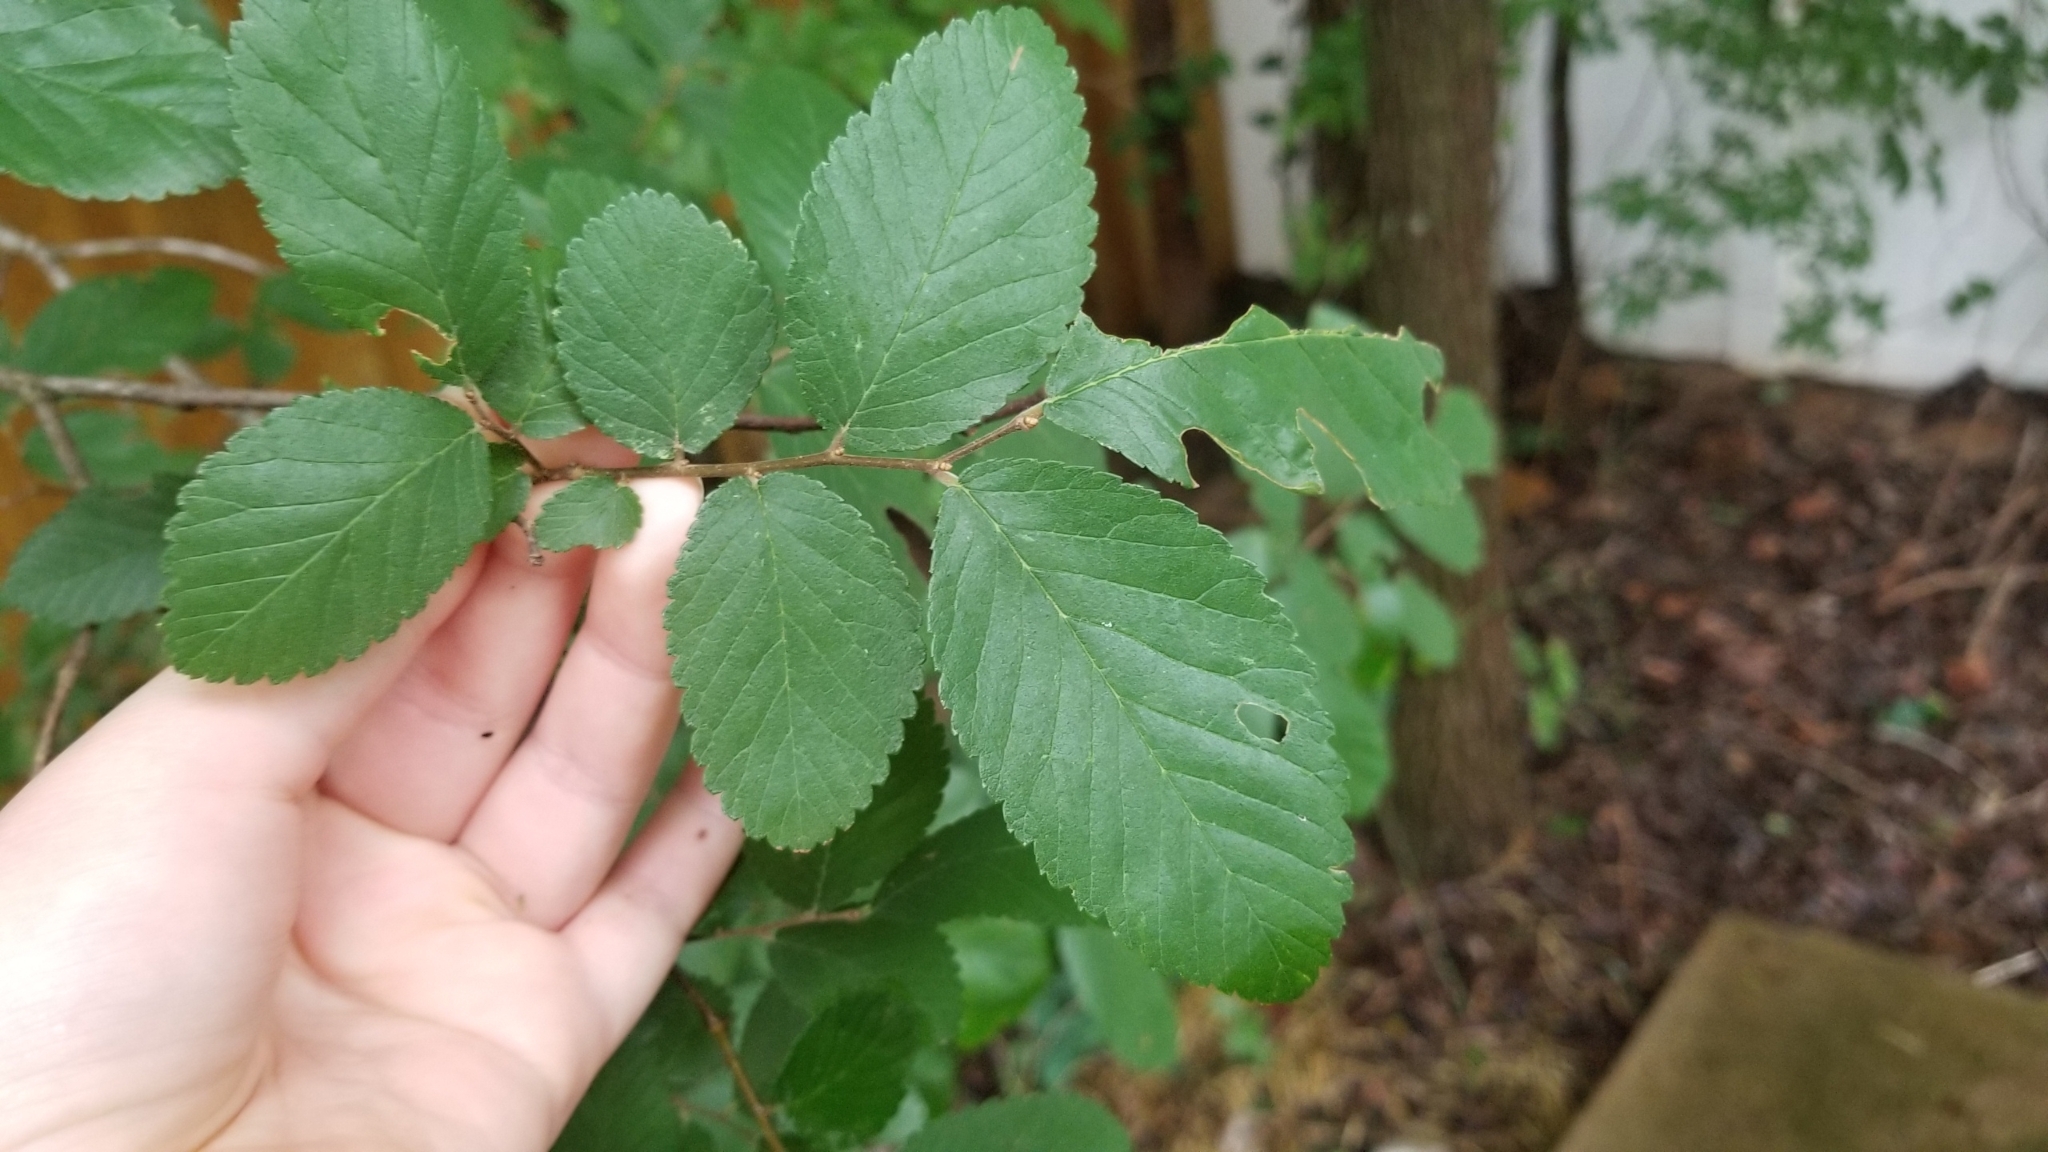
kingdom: Plantae
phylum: Tracheophyta
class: Magnoliopsida
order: Rosales
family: Ulmaceae
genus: Ulmus
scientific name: Ulmus crassifolia
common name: Basket elm
